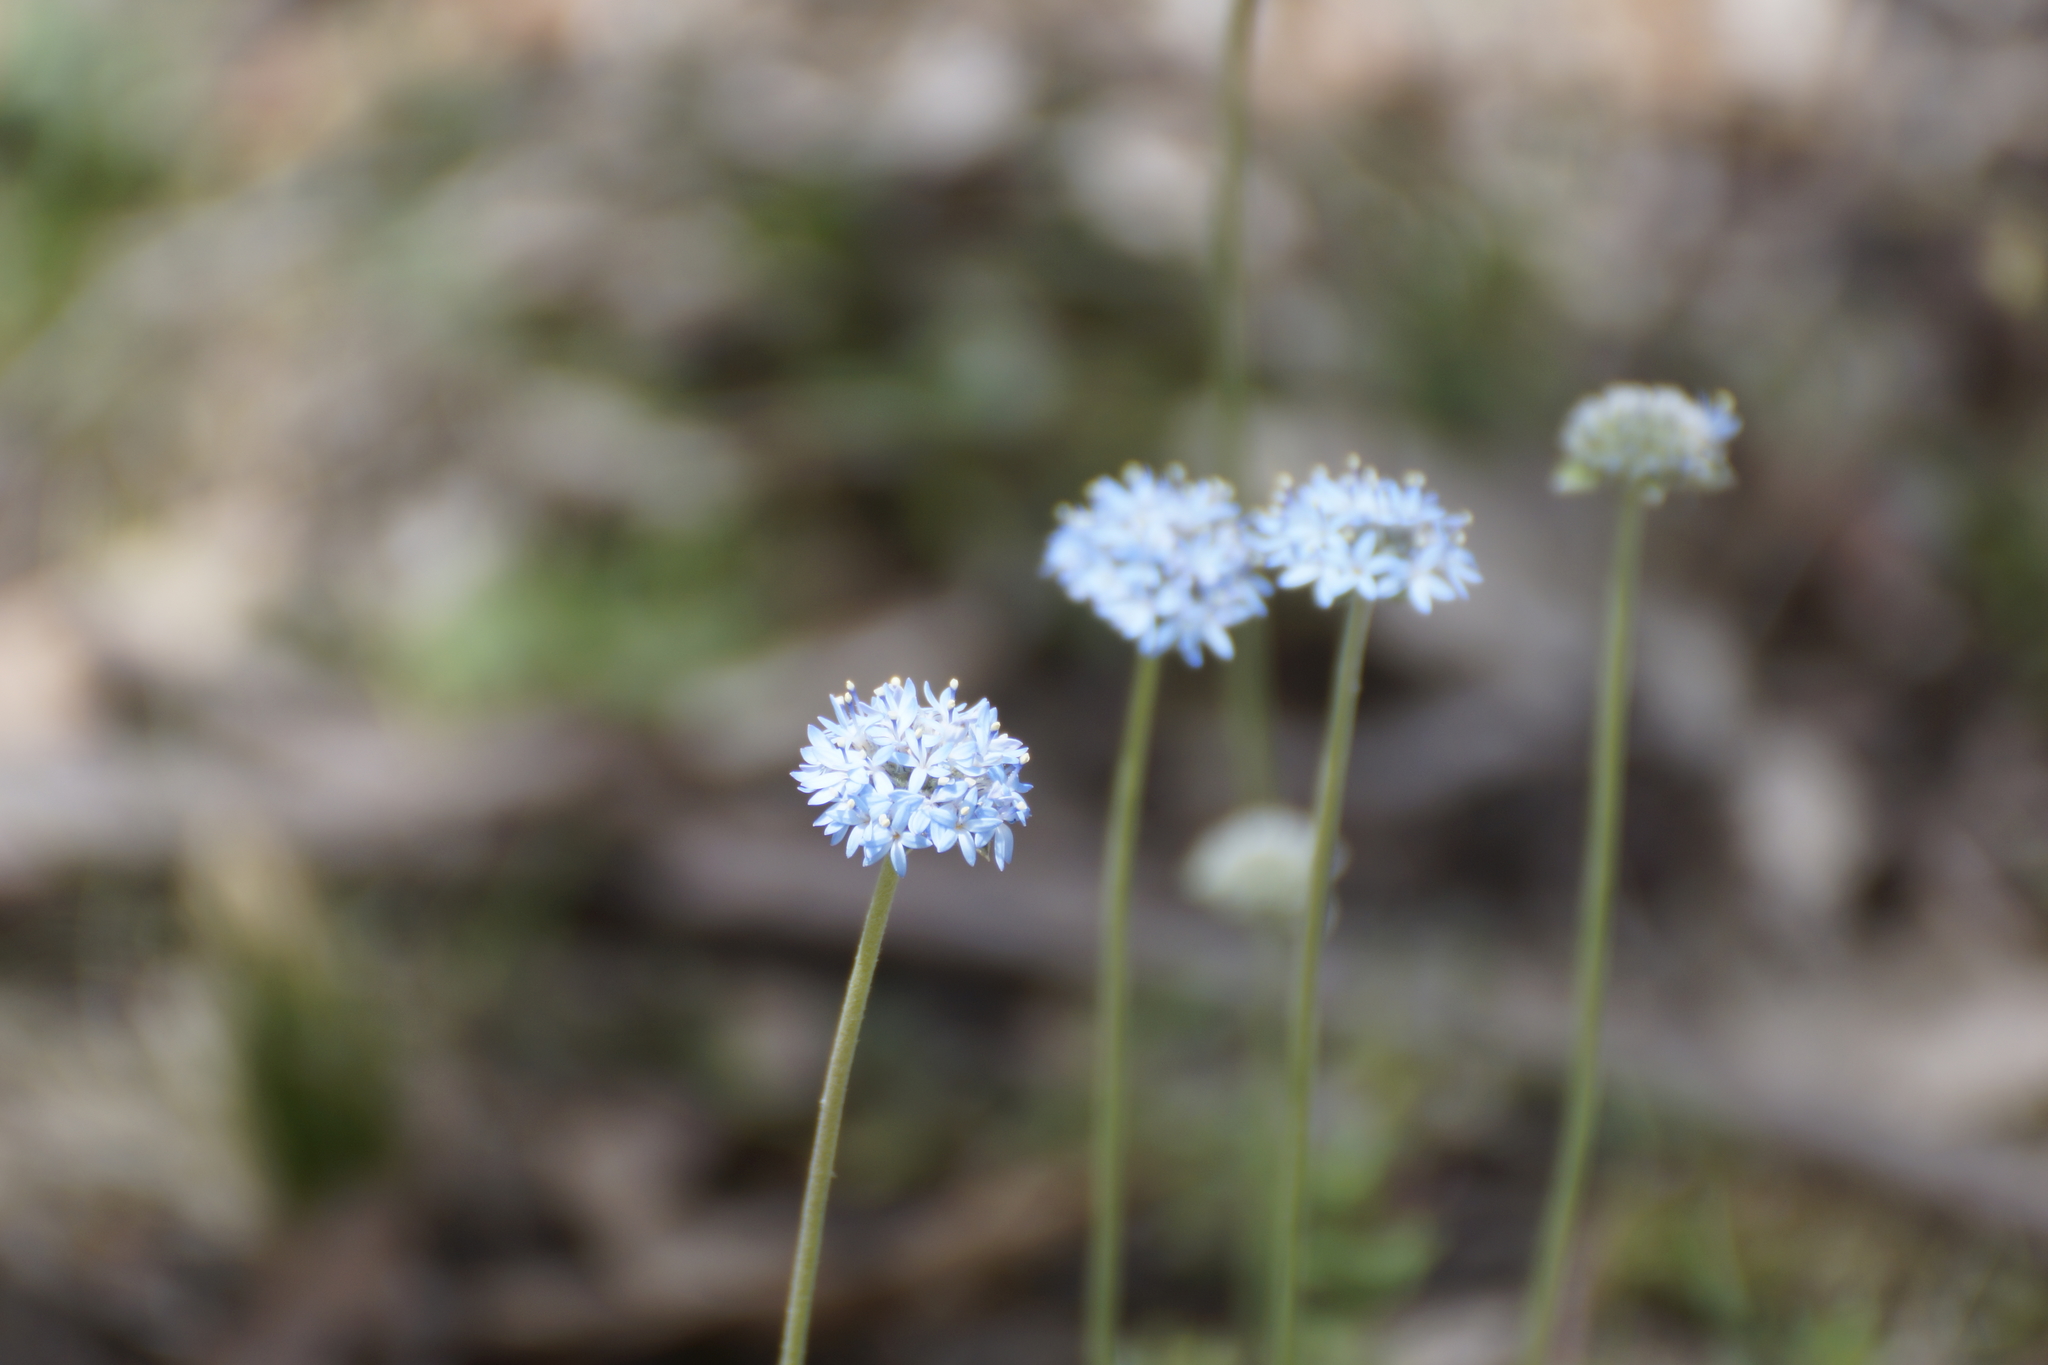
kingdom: Plantae
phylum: Tracheophyta
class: Magnoliopsida
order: Asterales
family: Goodeniaceae
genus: Brunonia
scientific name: Brunonia australis
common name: Blue pincushion
